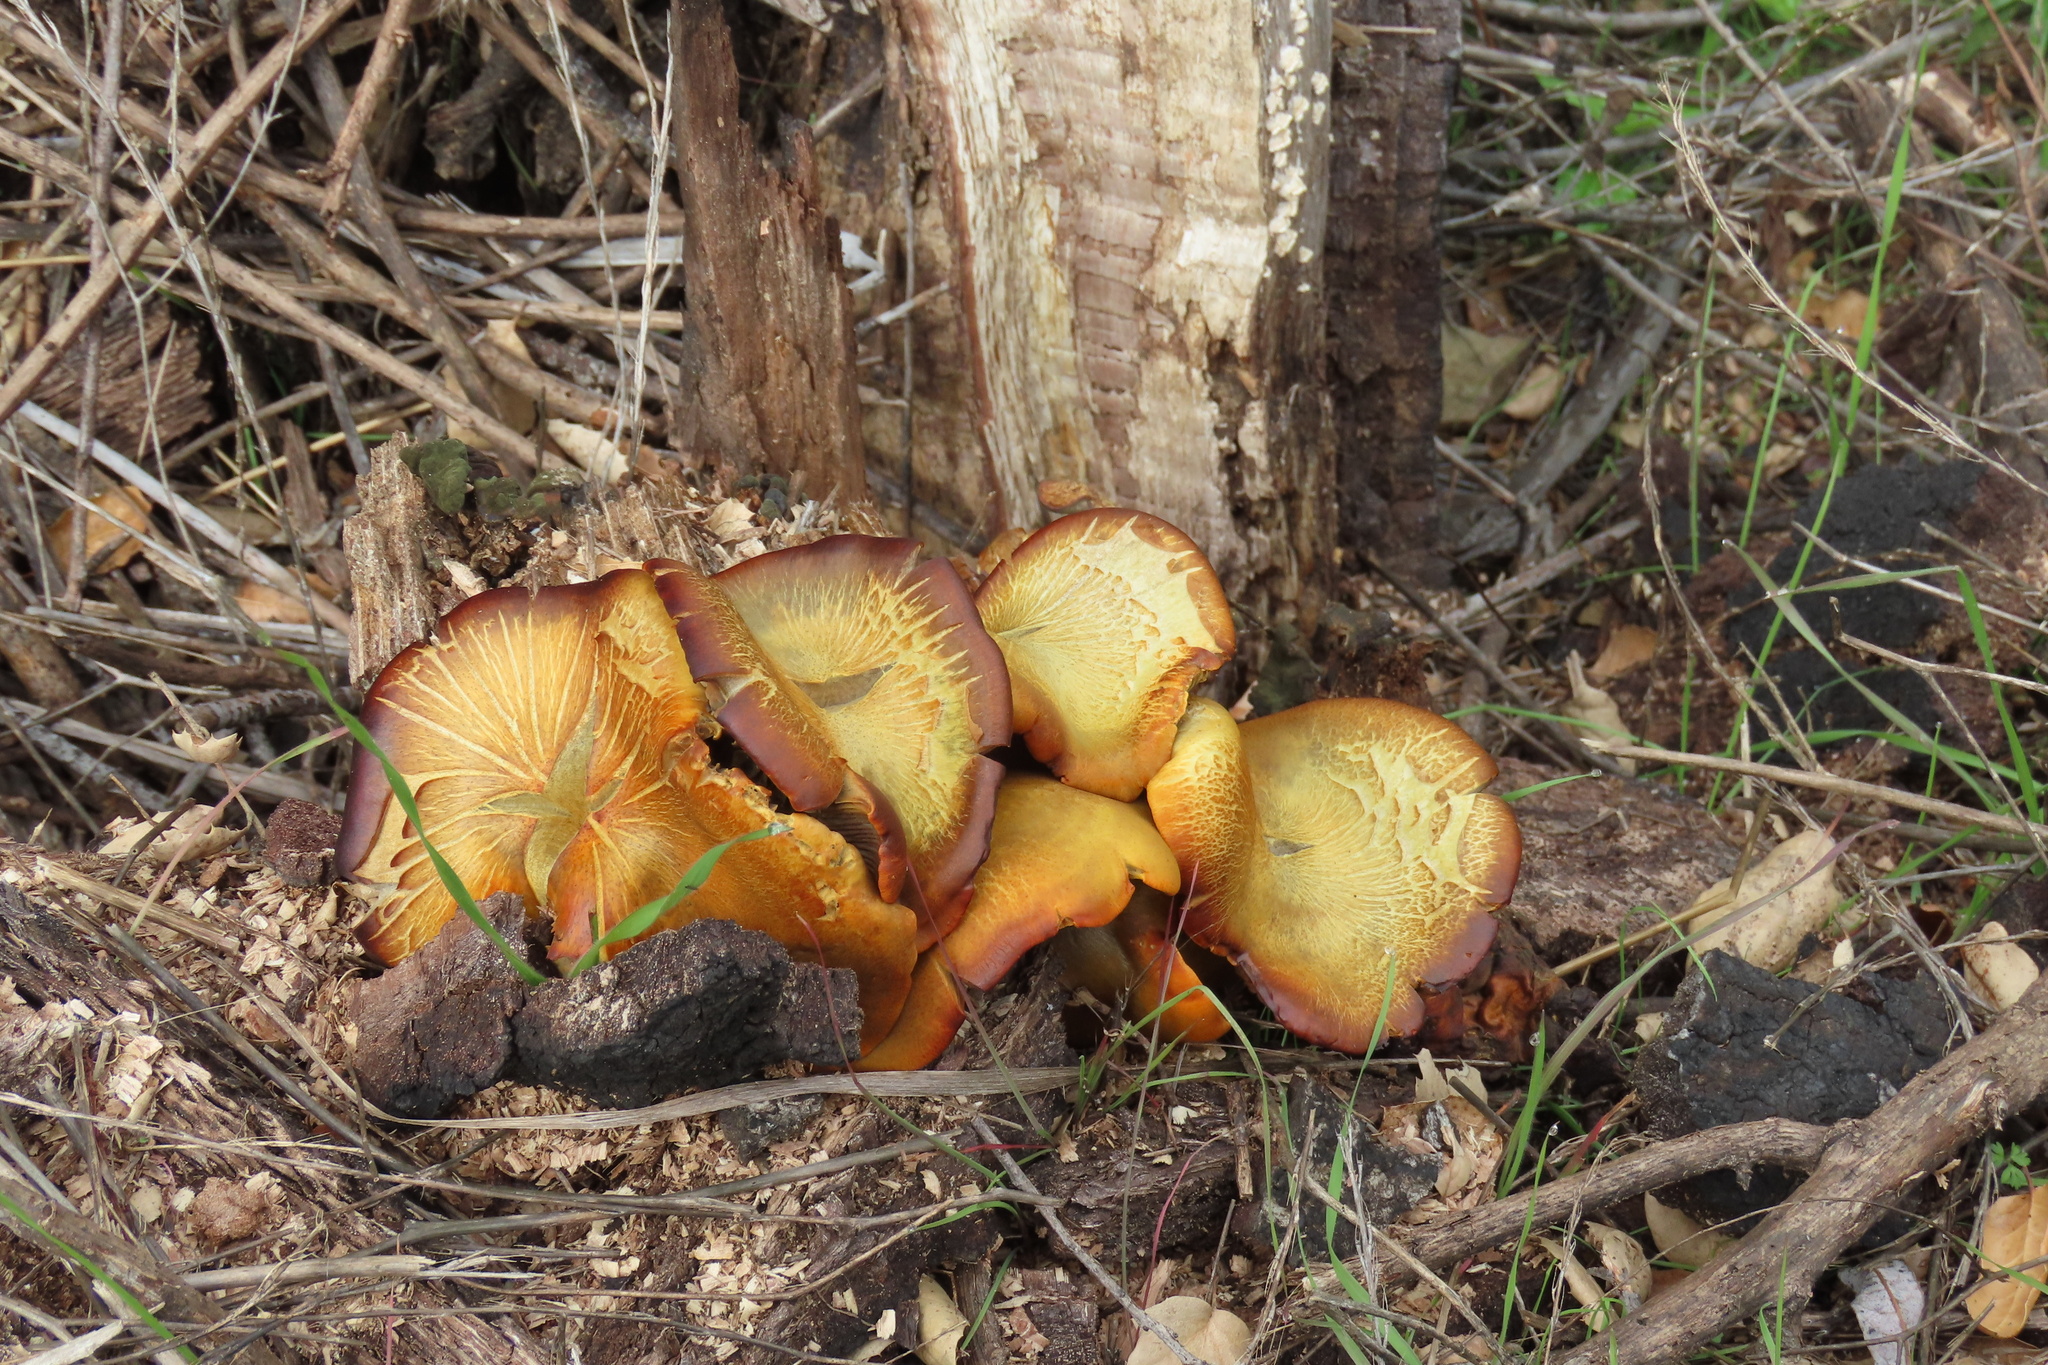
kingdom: Fungi
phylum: Basidiomycota
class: Agaricomycetes
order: Agaricales
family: Omphalotaceae
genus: Omphalotus
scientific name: Omphalotus olivascens
